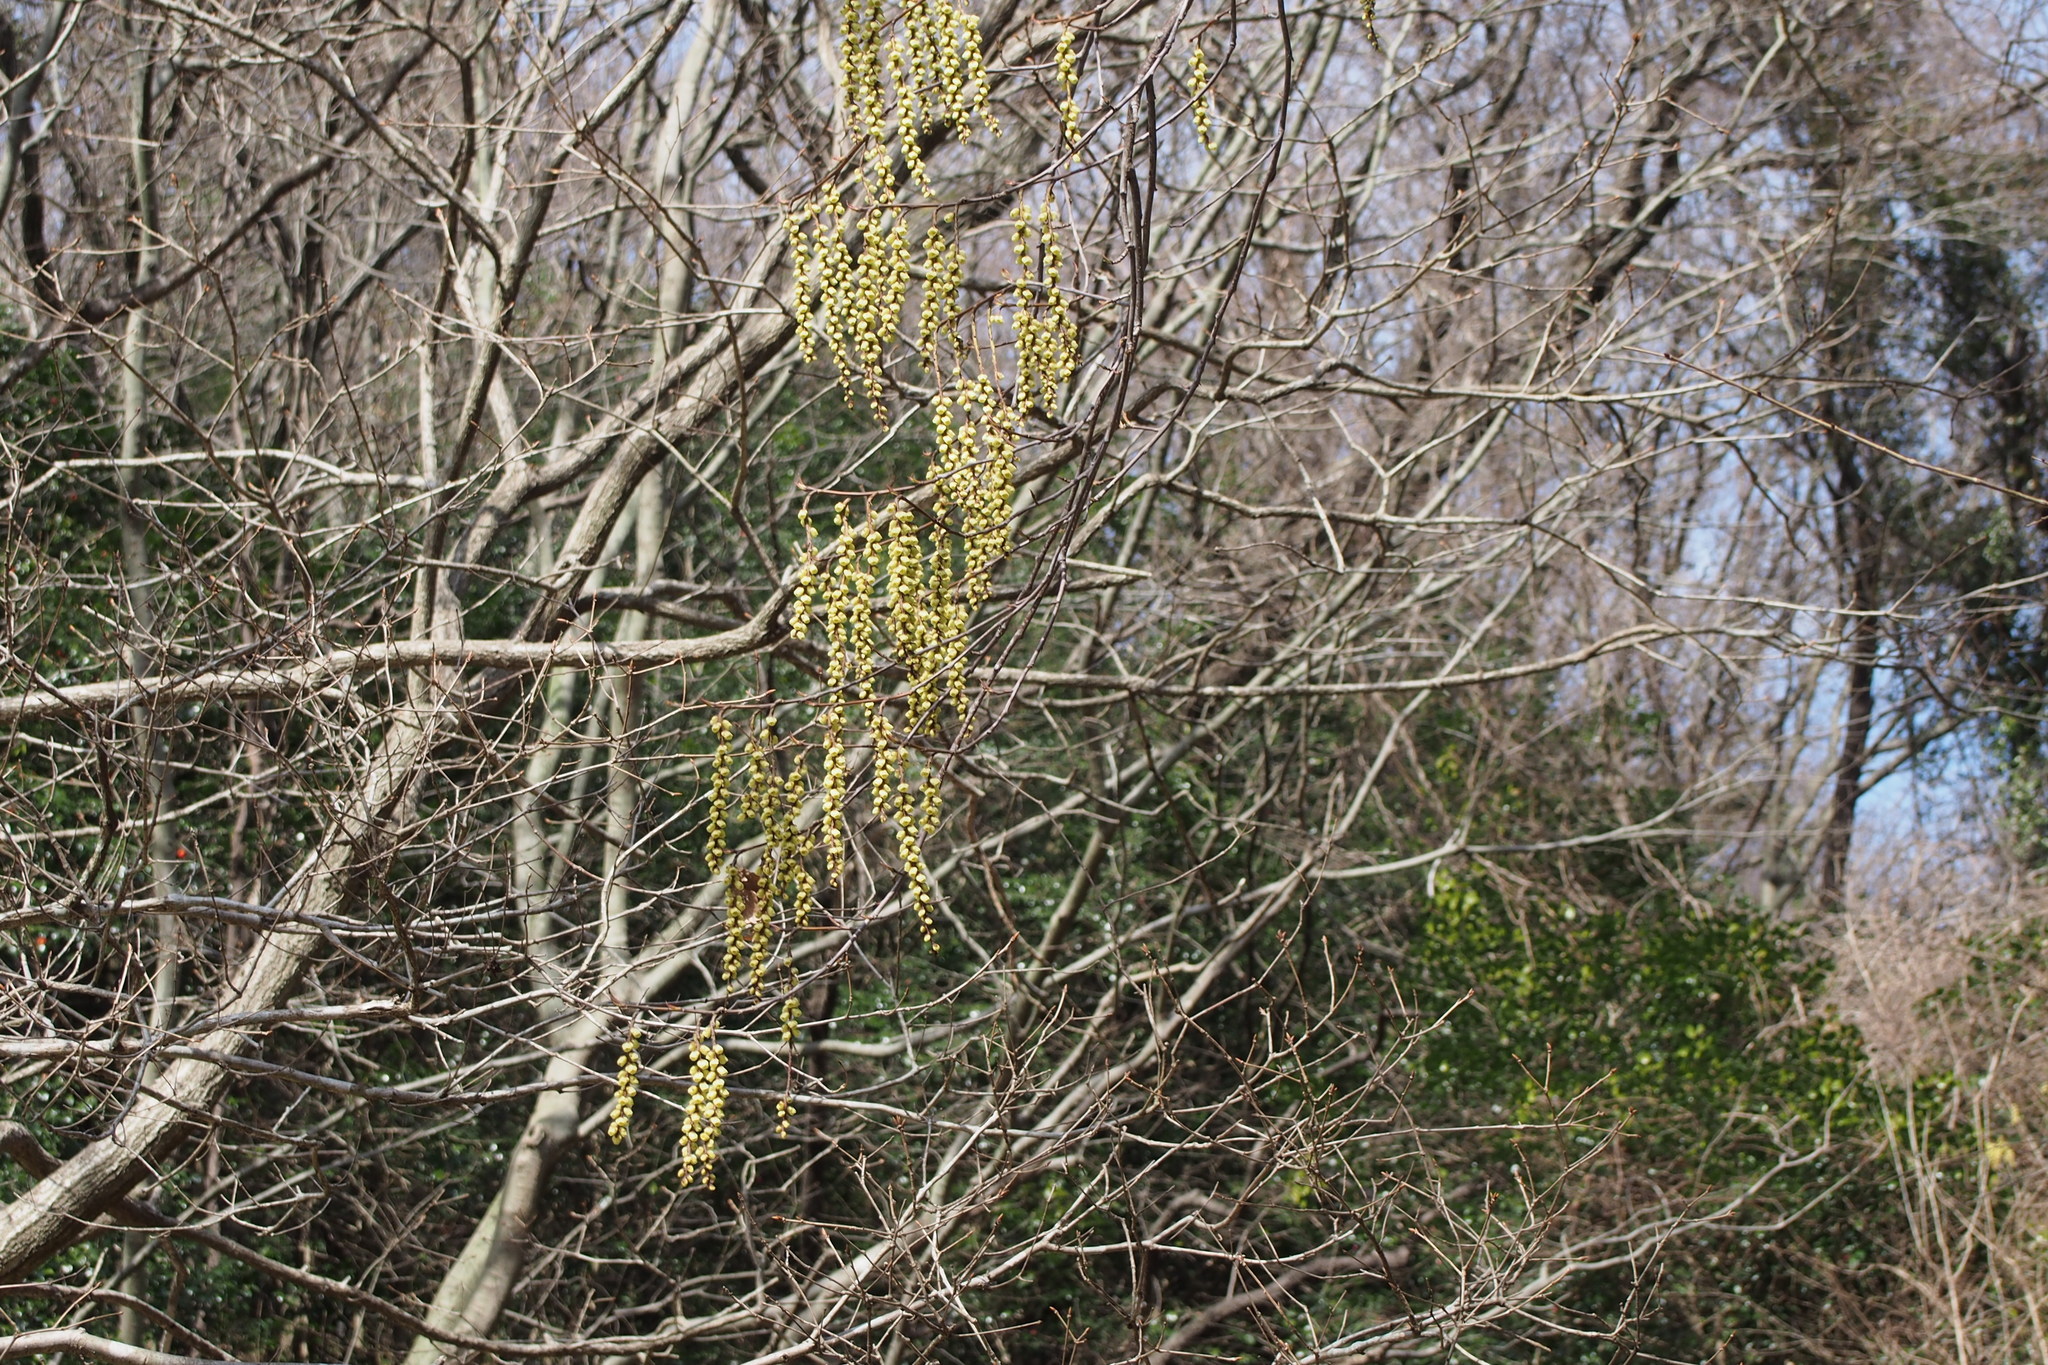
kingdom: Plantae
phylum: Tracheophyta
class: Magnoliopsida
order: Crossosomatales
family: Stachyuraceae
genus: Stachyurus
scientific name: Stachyurus praecox
